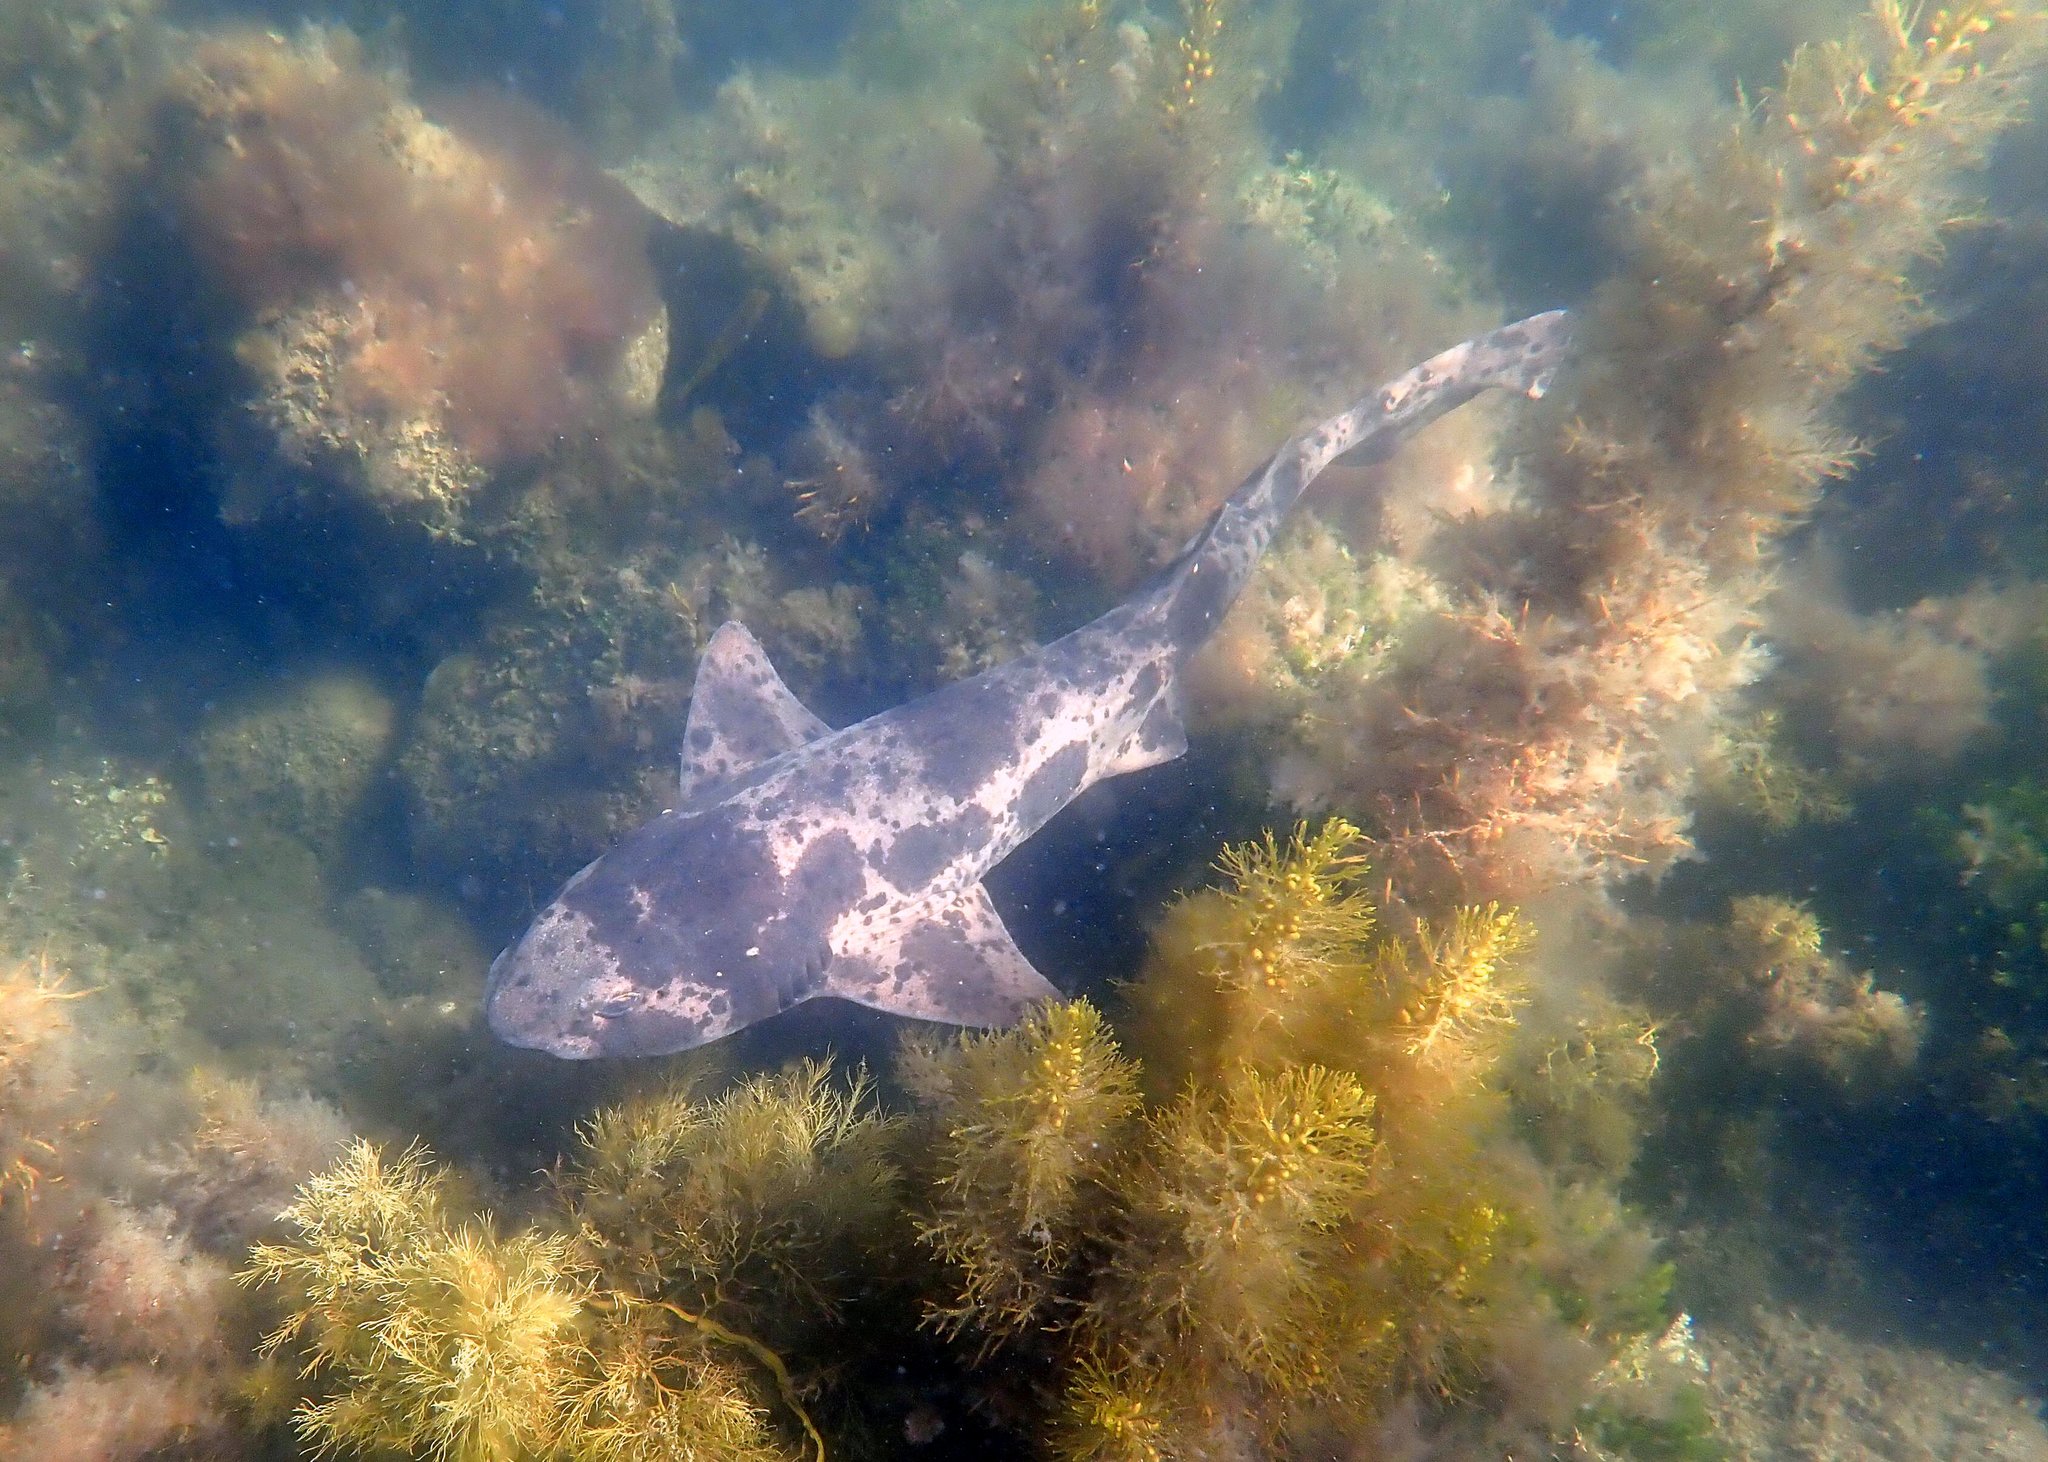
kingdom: Animalia
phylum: Chordata
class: Elasmobranchii
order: Carcharhiniformes
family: Scyliorhinidae
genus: Cephaloscyllium
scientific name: Cephaloscyllium laticeps
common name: Australian swellshark
